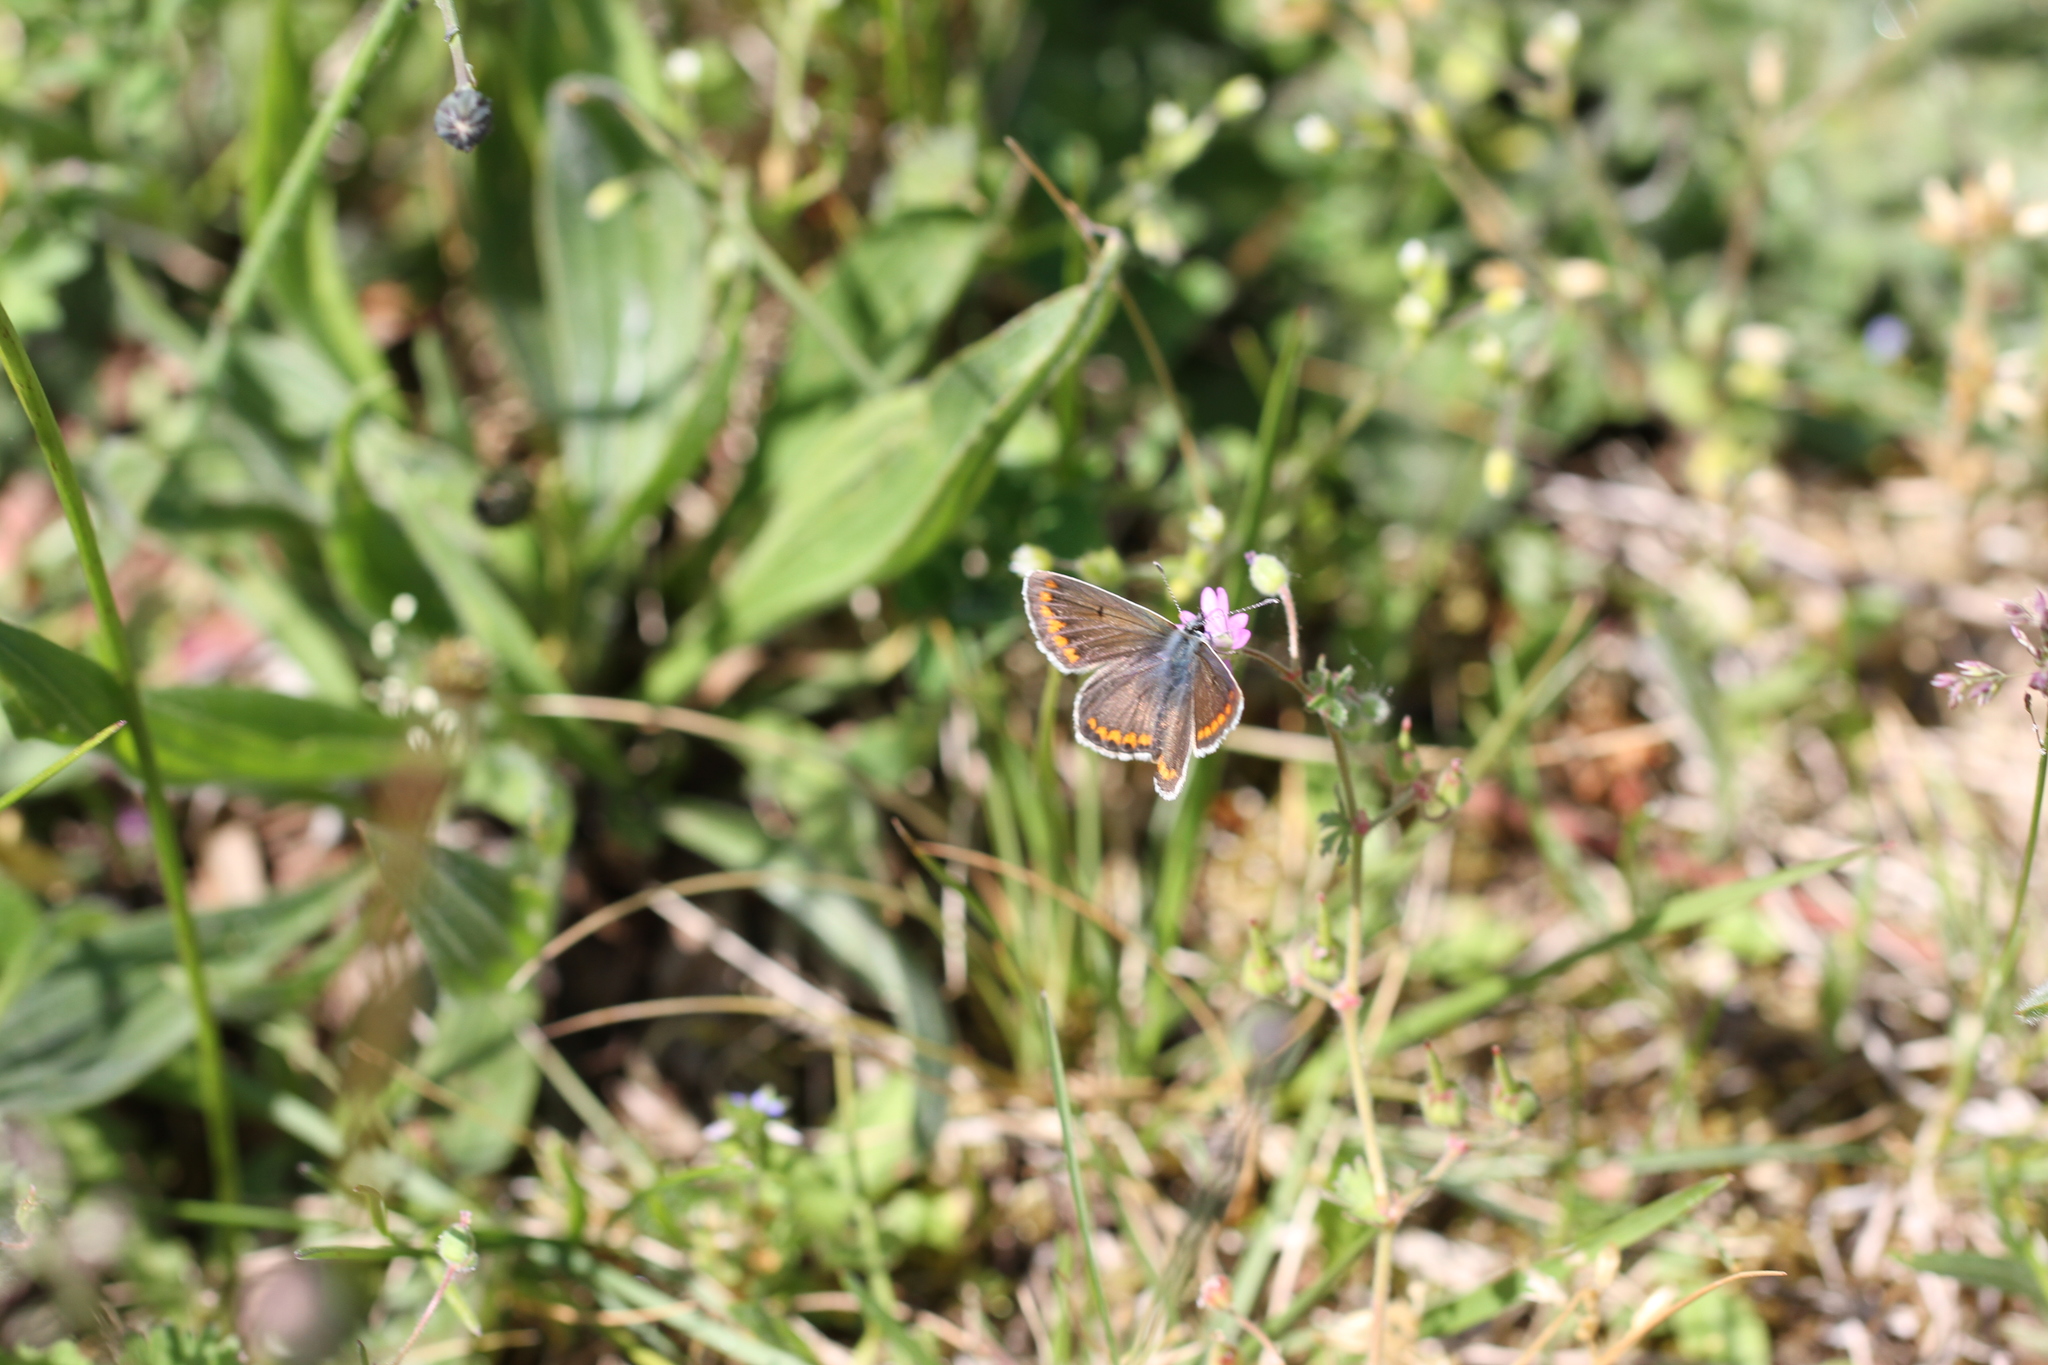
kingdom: Animalia
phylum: Arthropoda
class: Insecta
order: Lepidoptera
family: Lycaenidae
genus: Aricia
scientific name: Aricia agestis
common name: Brown argus
